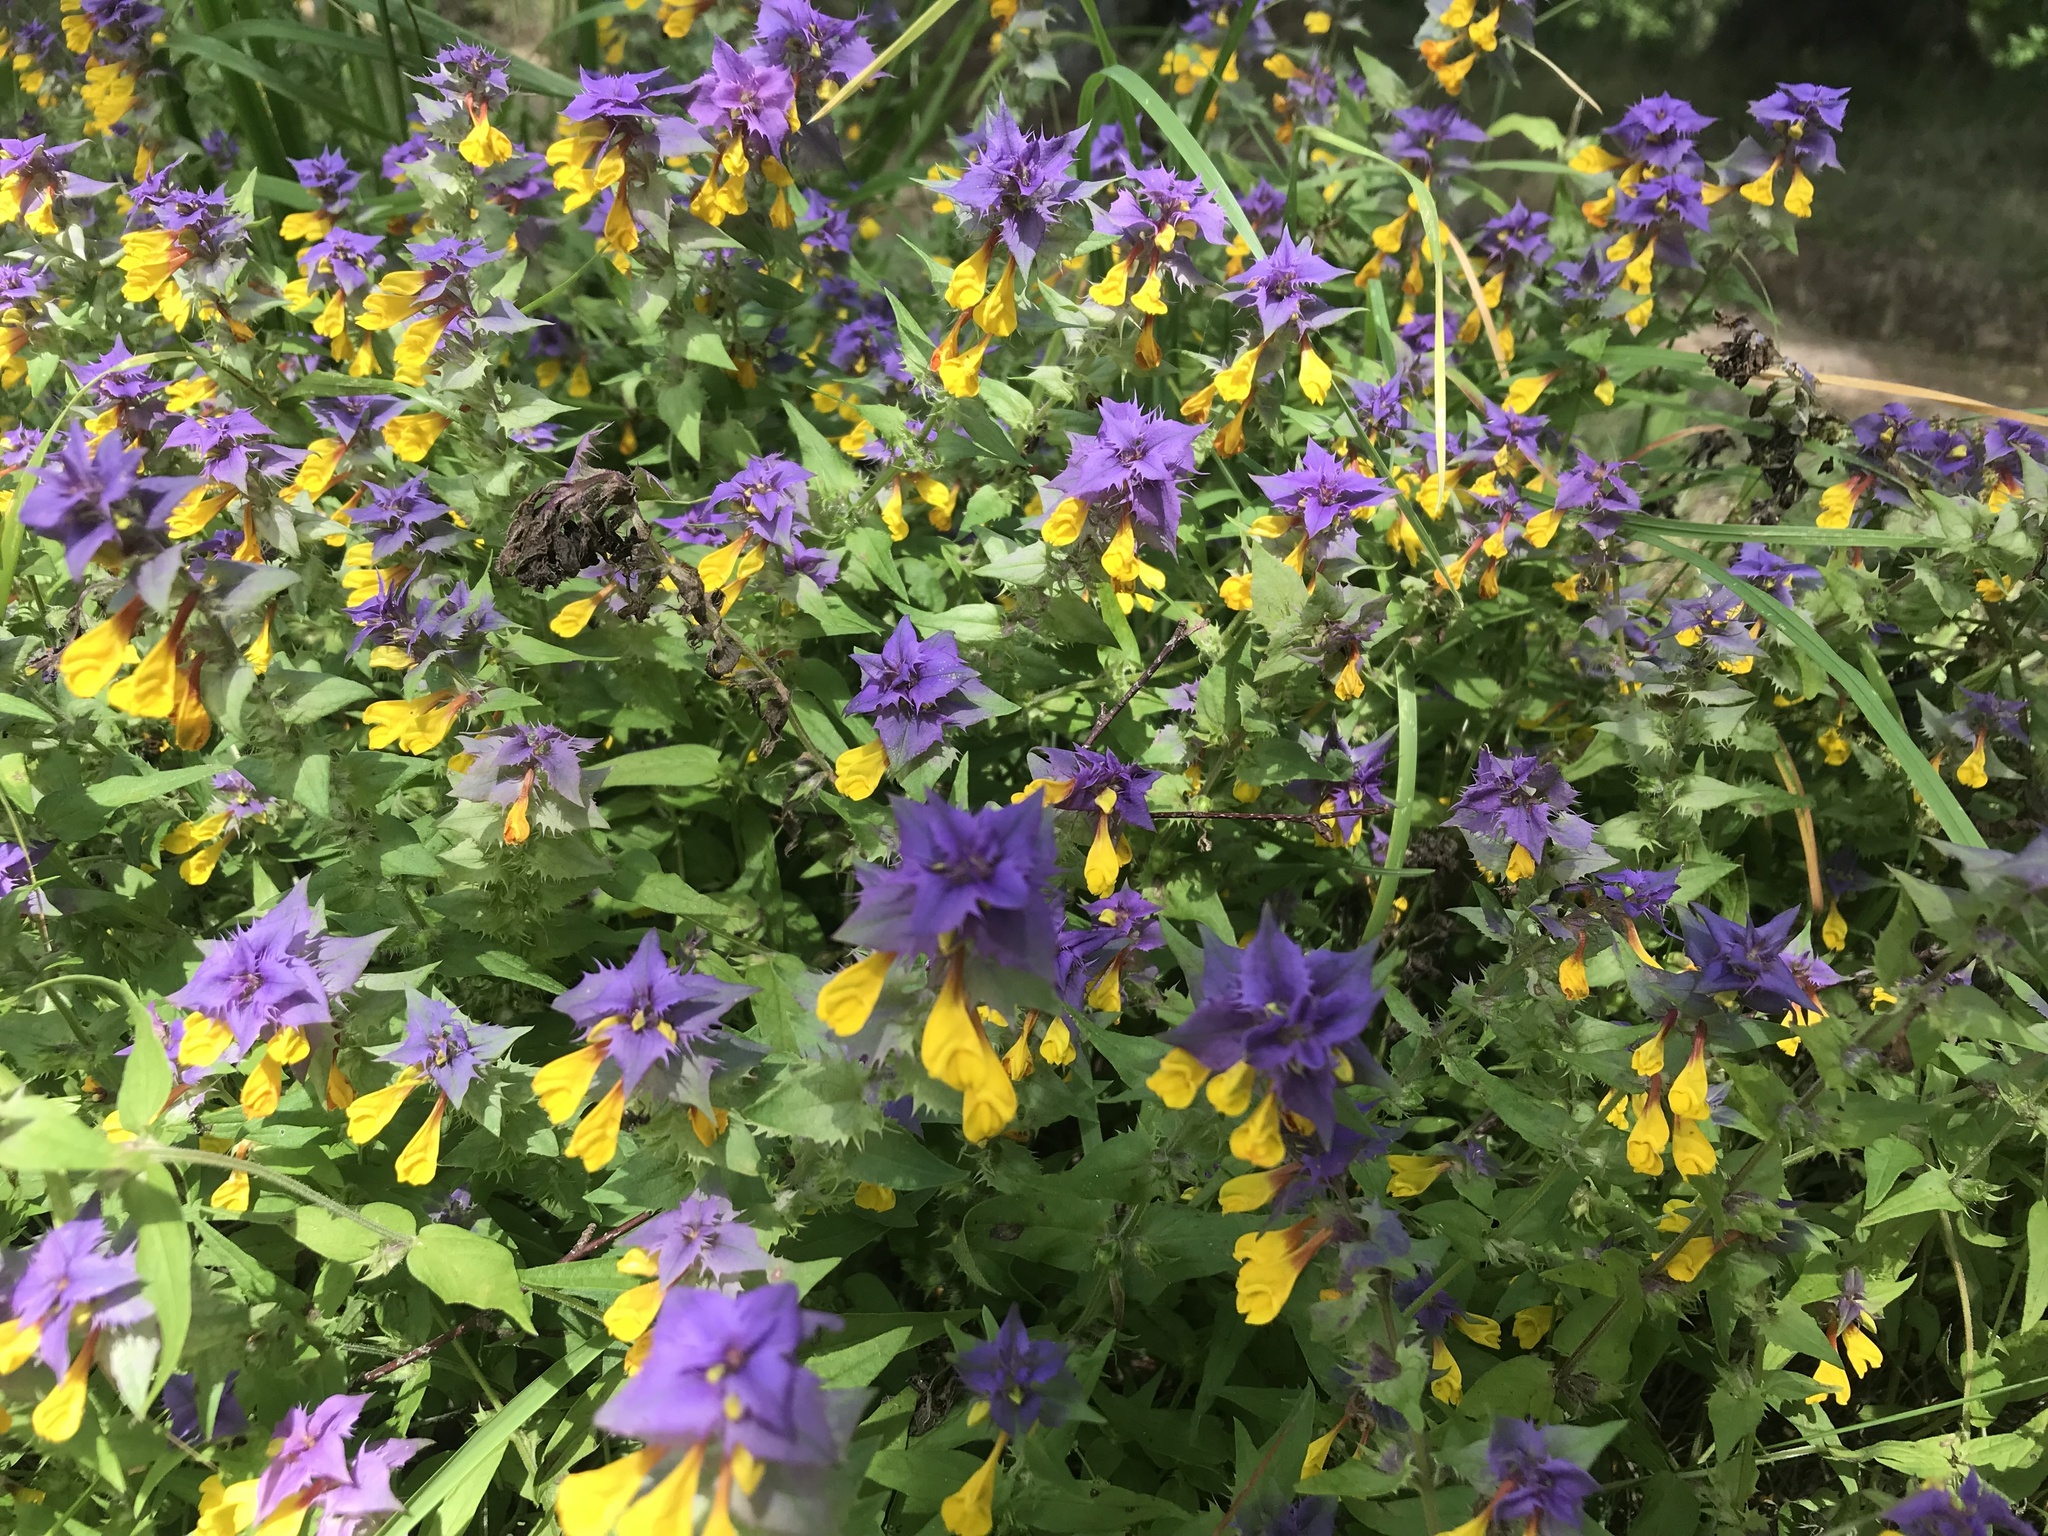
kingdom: Plantae
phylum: Tracheophyta
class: Magnoliopsida
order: Lamiales
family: Orobanchaceae
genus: Melampyrum
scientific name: Melampyrum nemorosum
